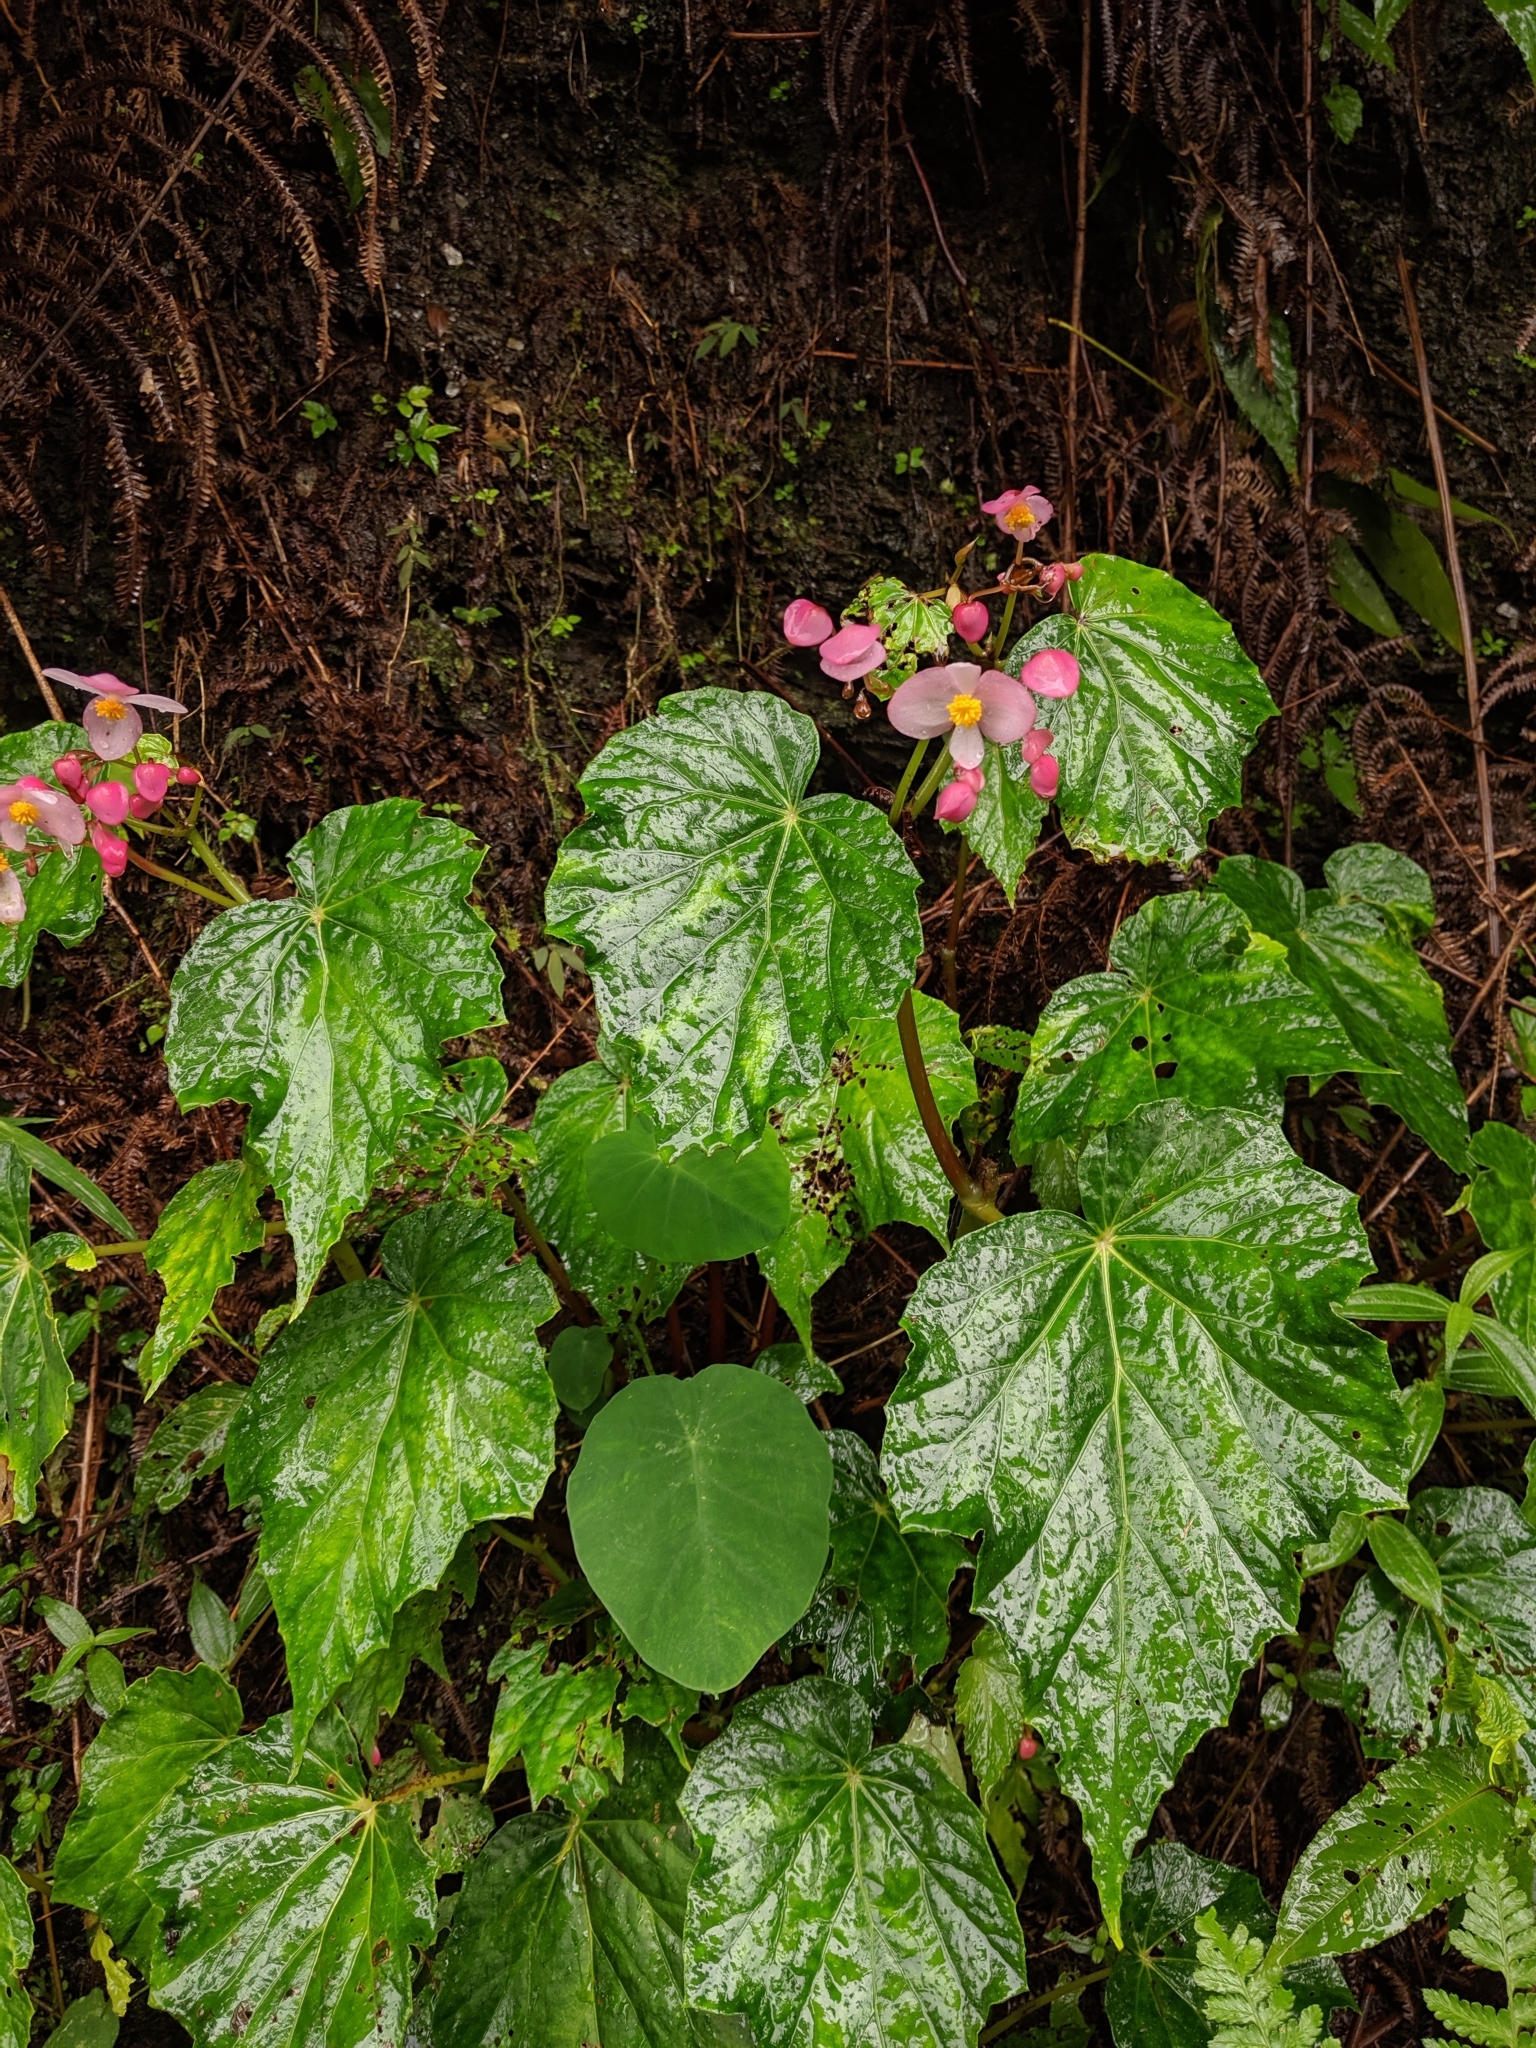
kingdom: Plantae
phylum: Tracheophyta
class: Magnoliopsida
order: Cucurbitales
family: Begoniaceae
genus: Begonia
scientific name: Begonia formosana
